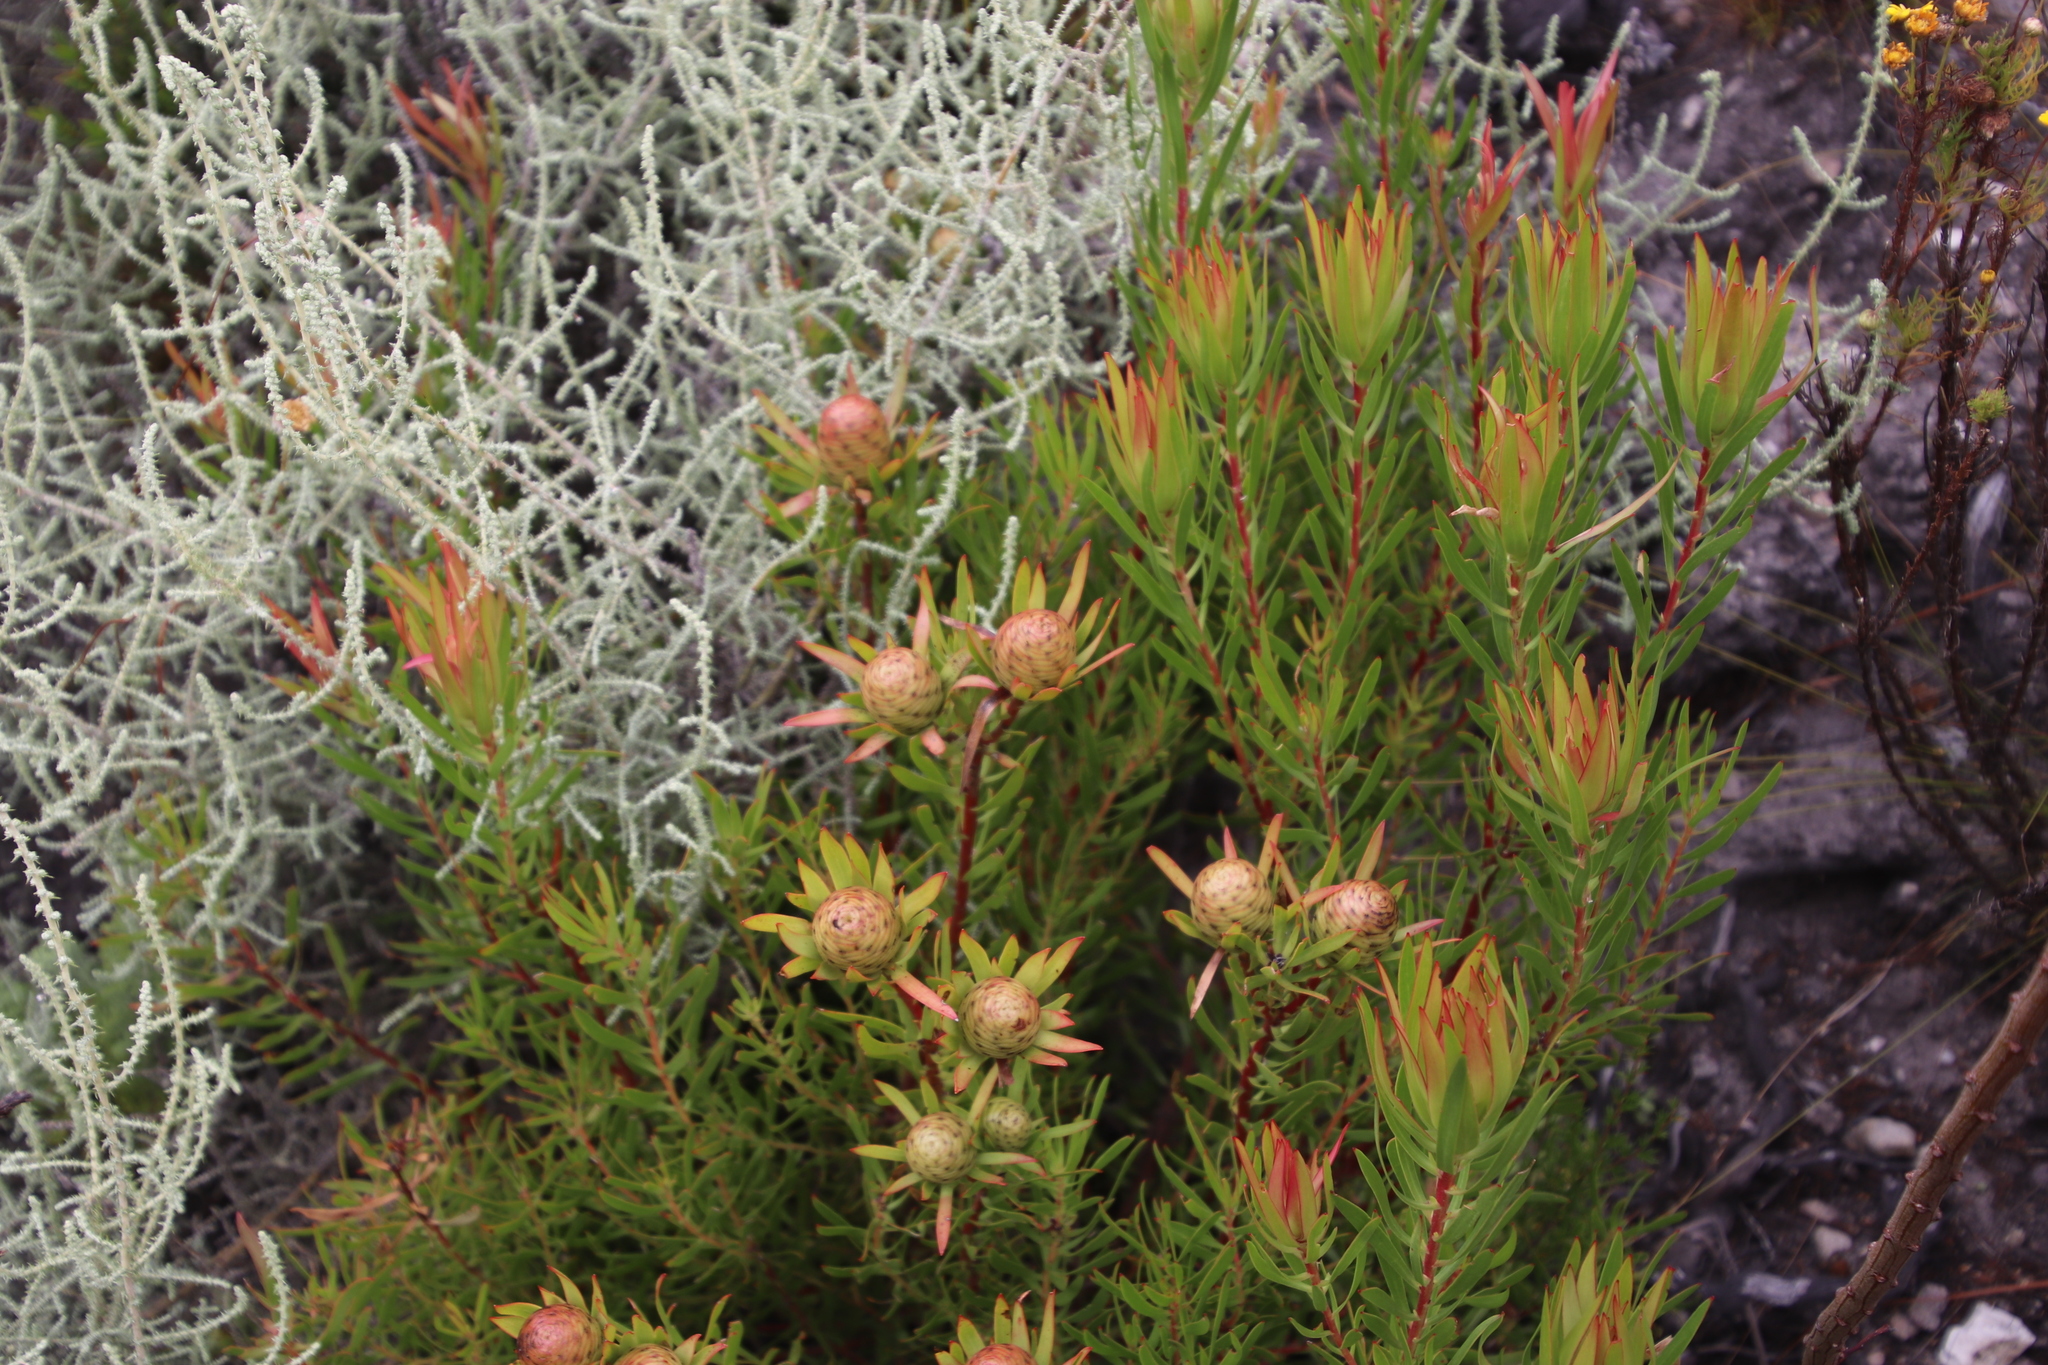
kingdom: Plantae
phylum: Tracheophyta
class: Magnoliopsida
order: Proteales
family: Proteaceae
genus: Leucadendron
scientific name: Leucadendron spissifolium
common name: Spear-leaf conebush
